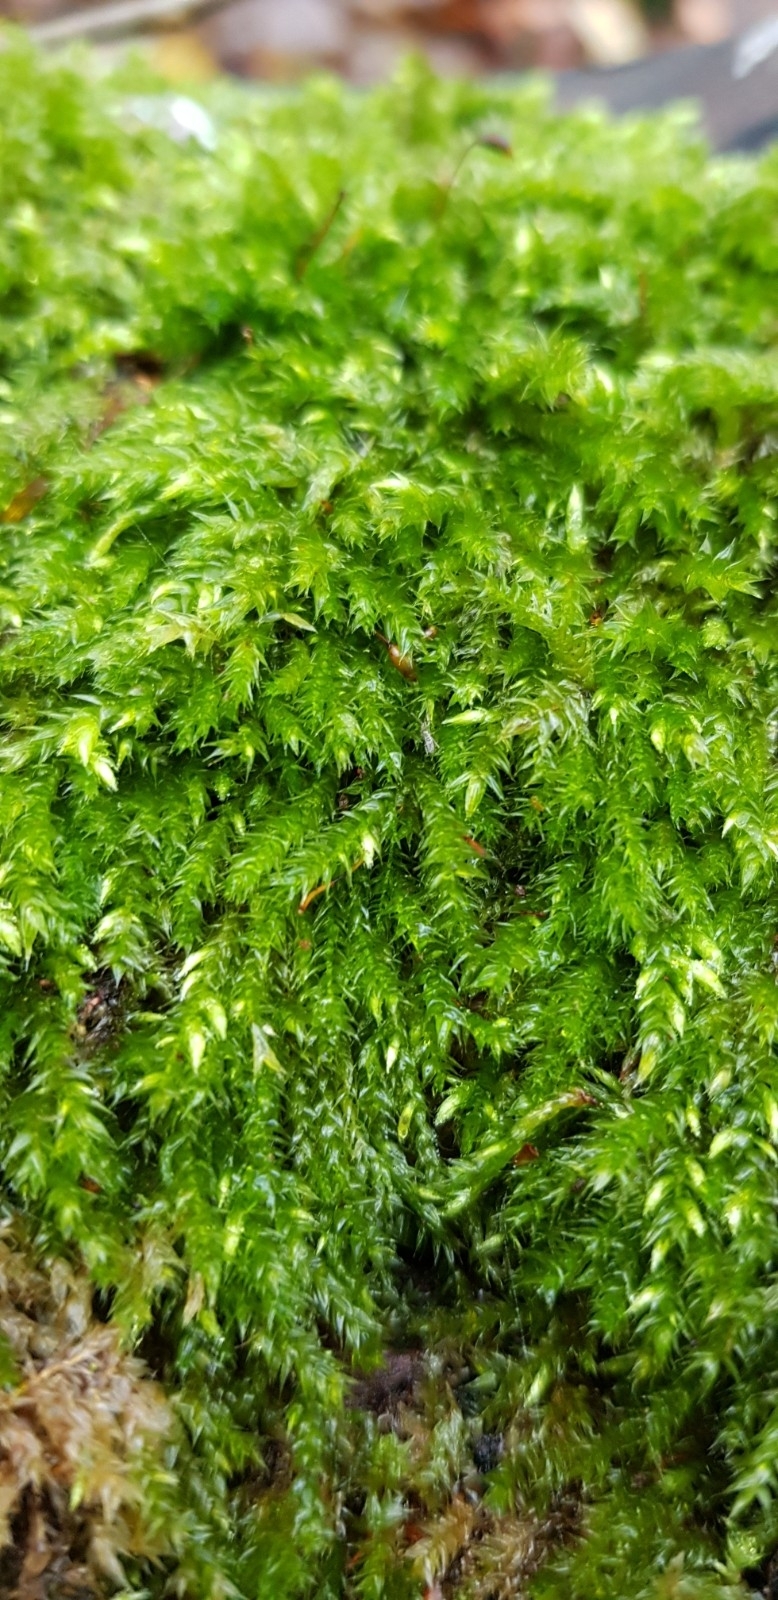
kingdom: Plantae
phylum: Bryophyta
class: Bryopsida
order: Hypnales
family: Brachytheciaceae
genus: Brachythecium
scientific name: Brachythecium rutabulum
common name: Rough-stalked feather-moss
